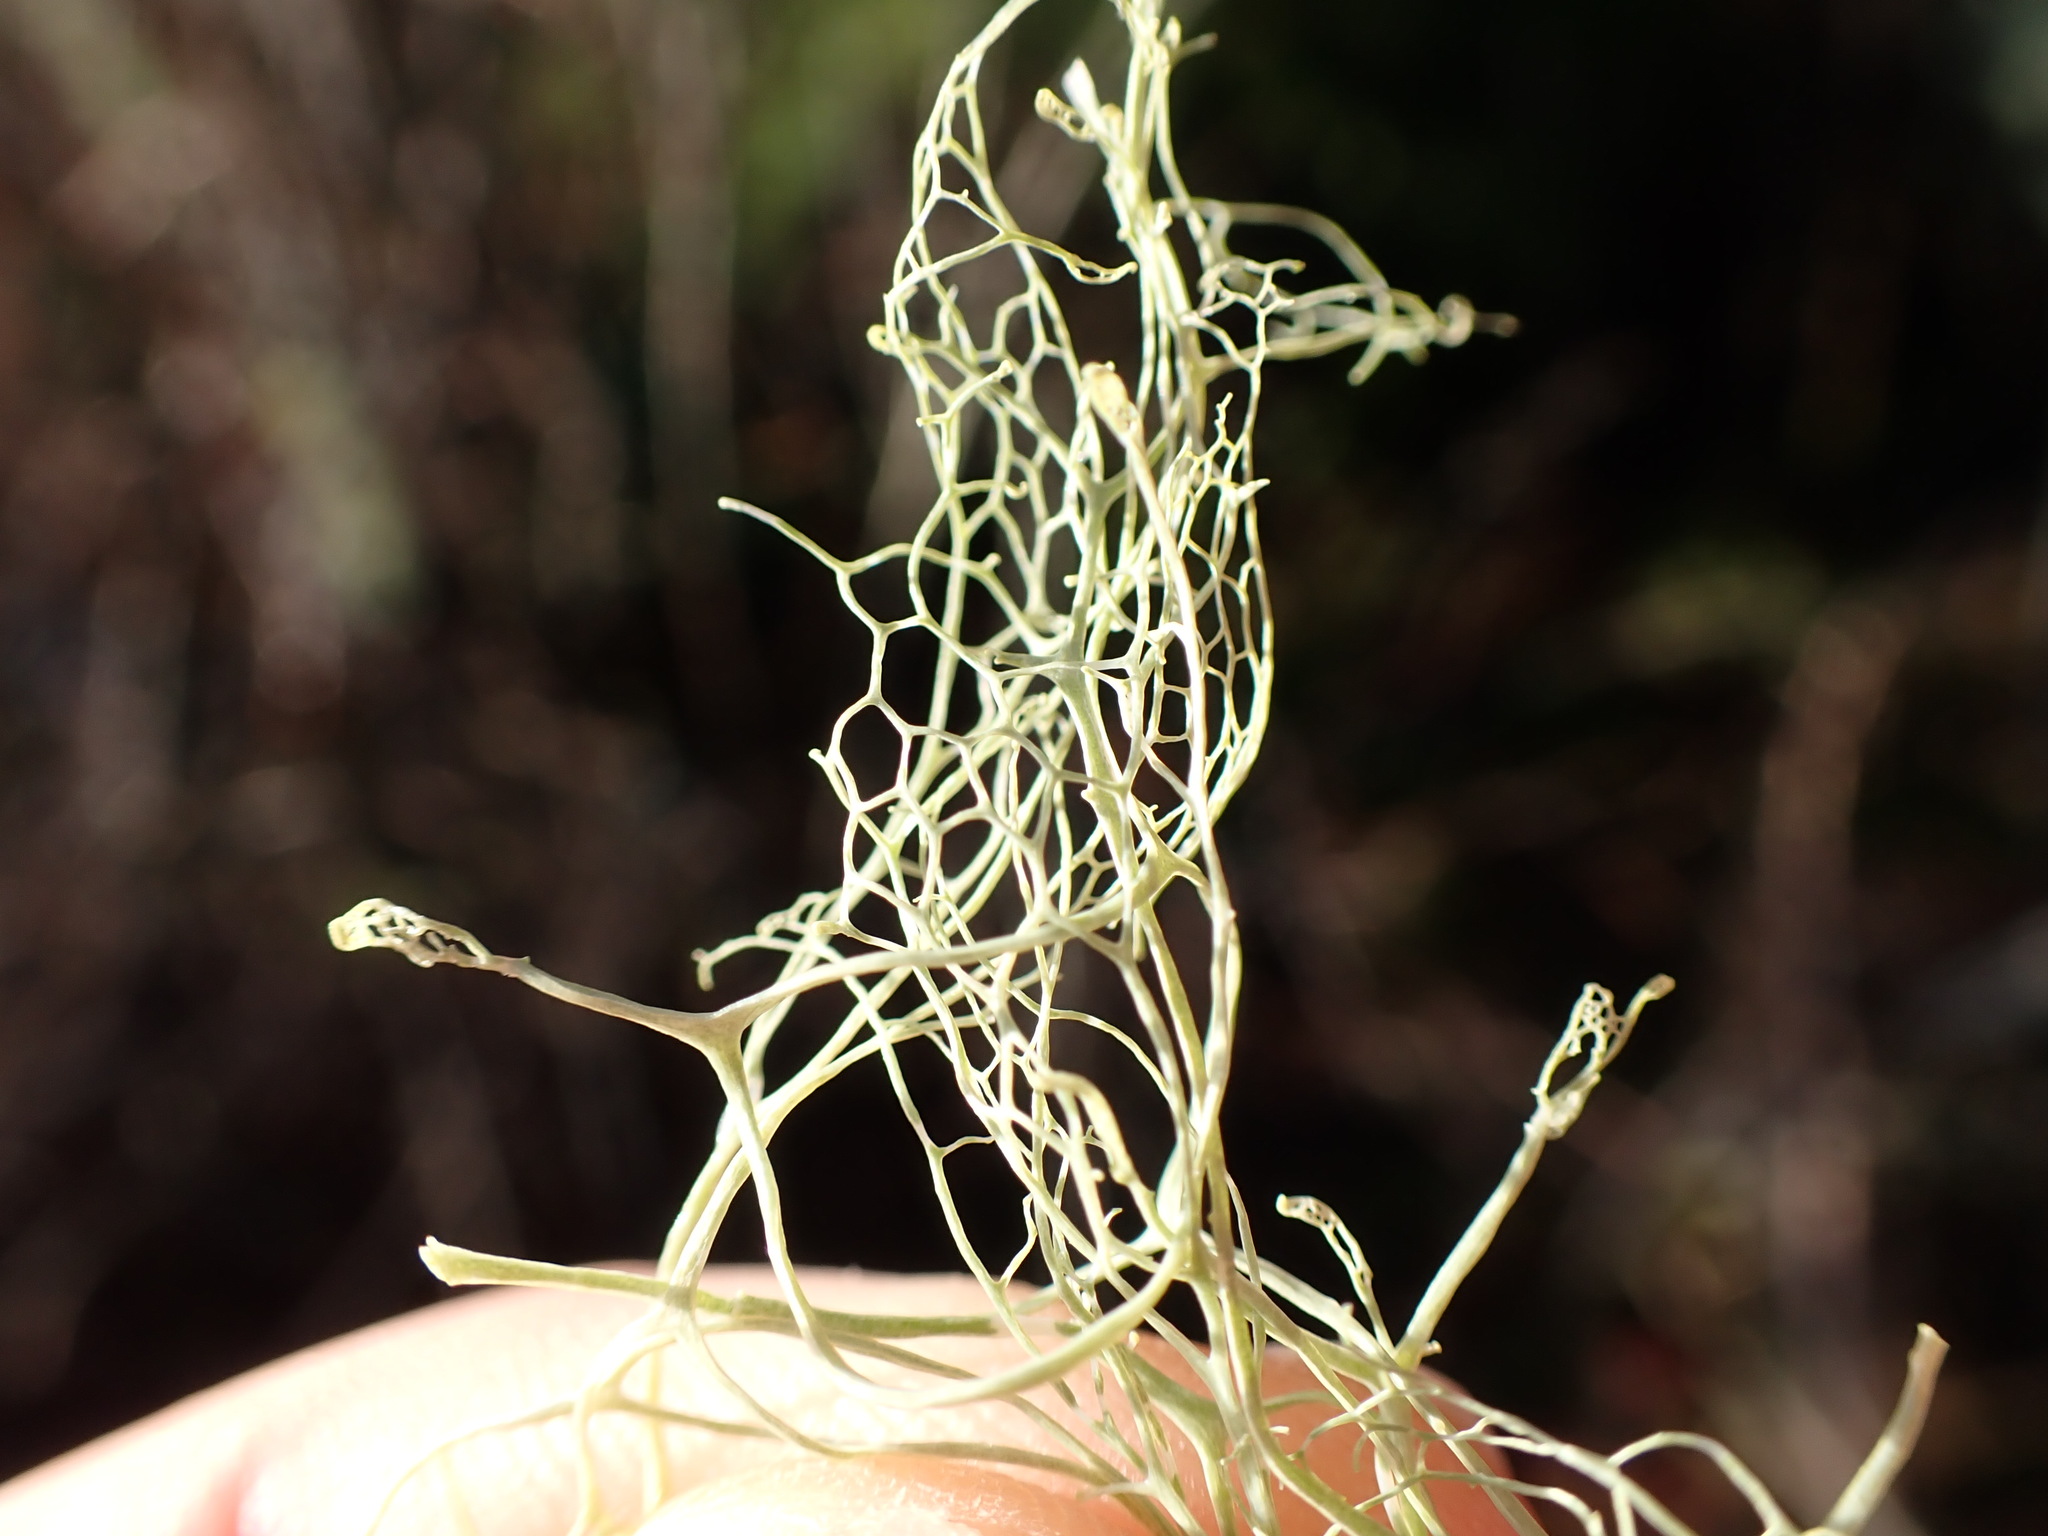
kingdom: Fungi
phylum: Ascomycota
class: Lecanoromycetes
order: Lecanorales
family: Ramalinaceae
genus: Ramalina
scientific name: Ramalina menziesii
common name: Lace lichen
